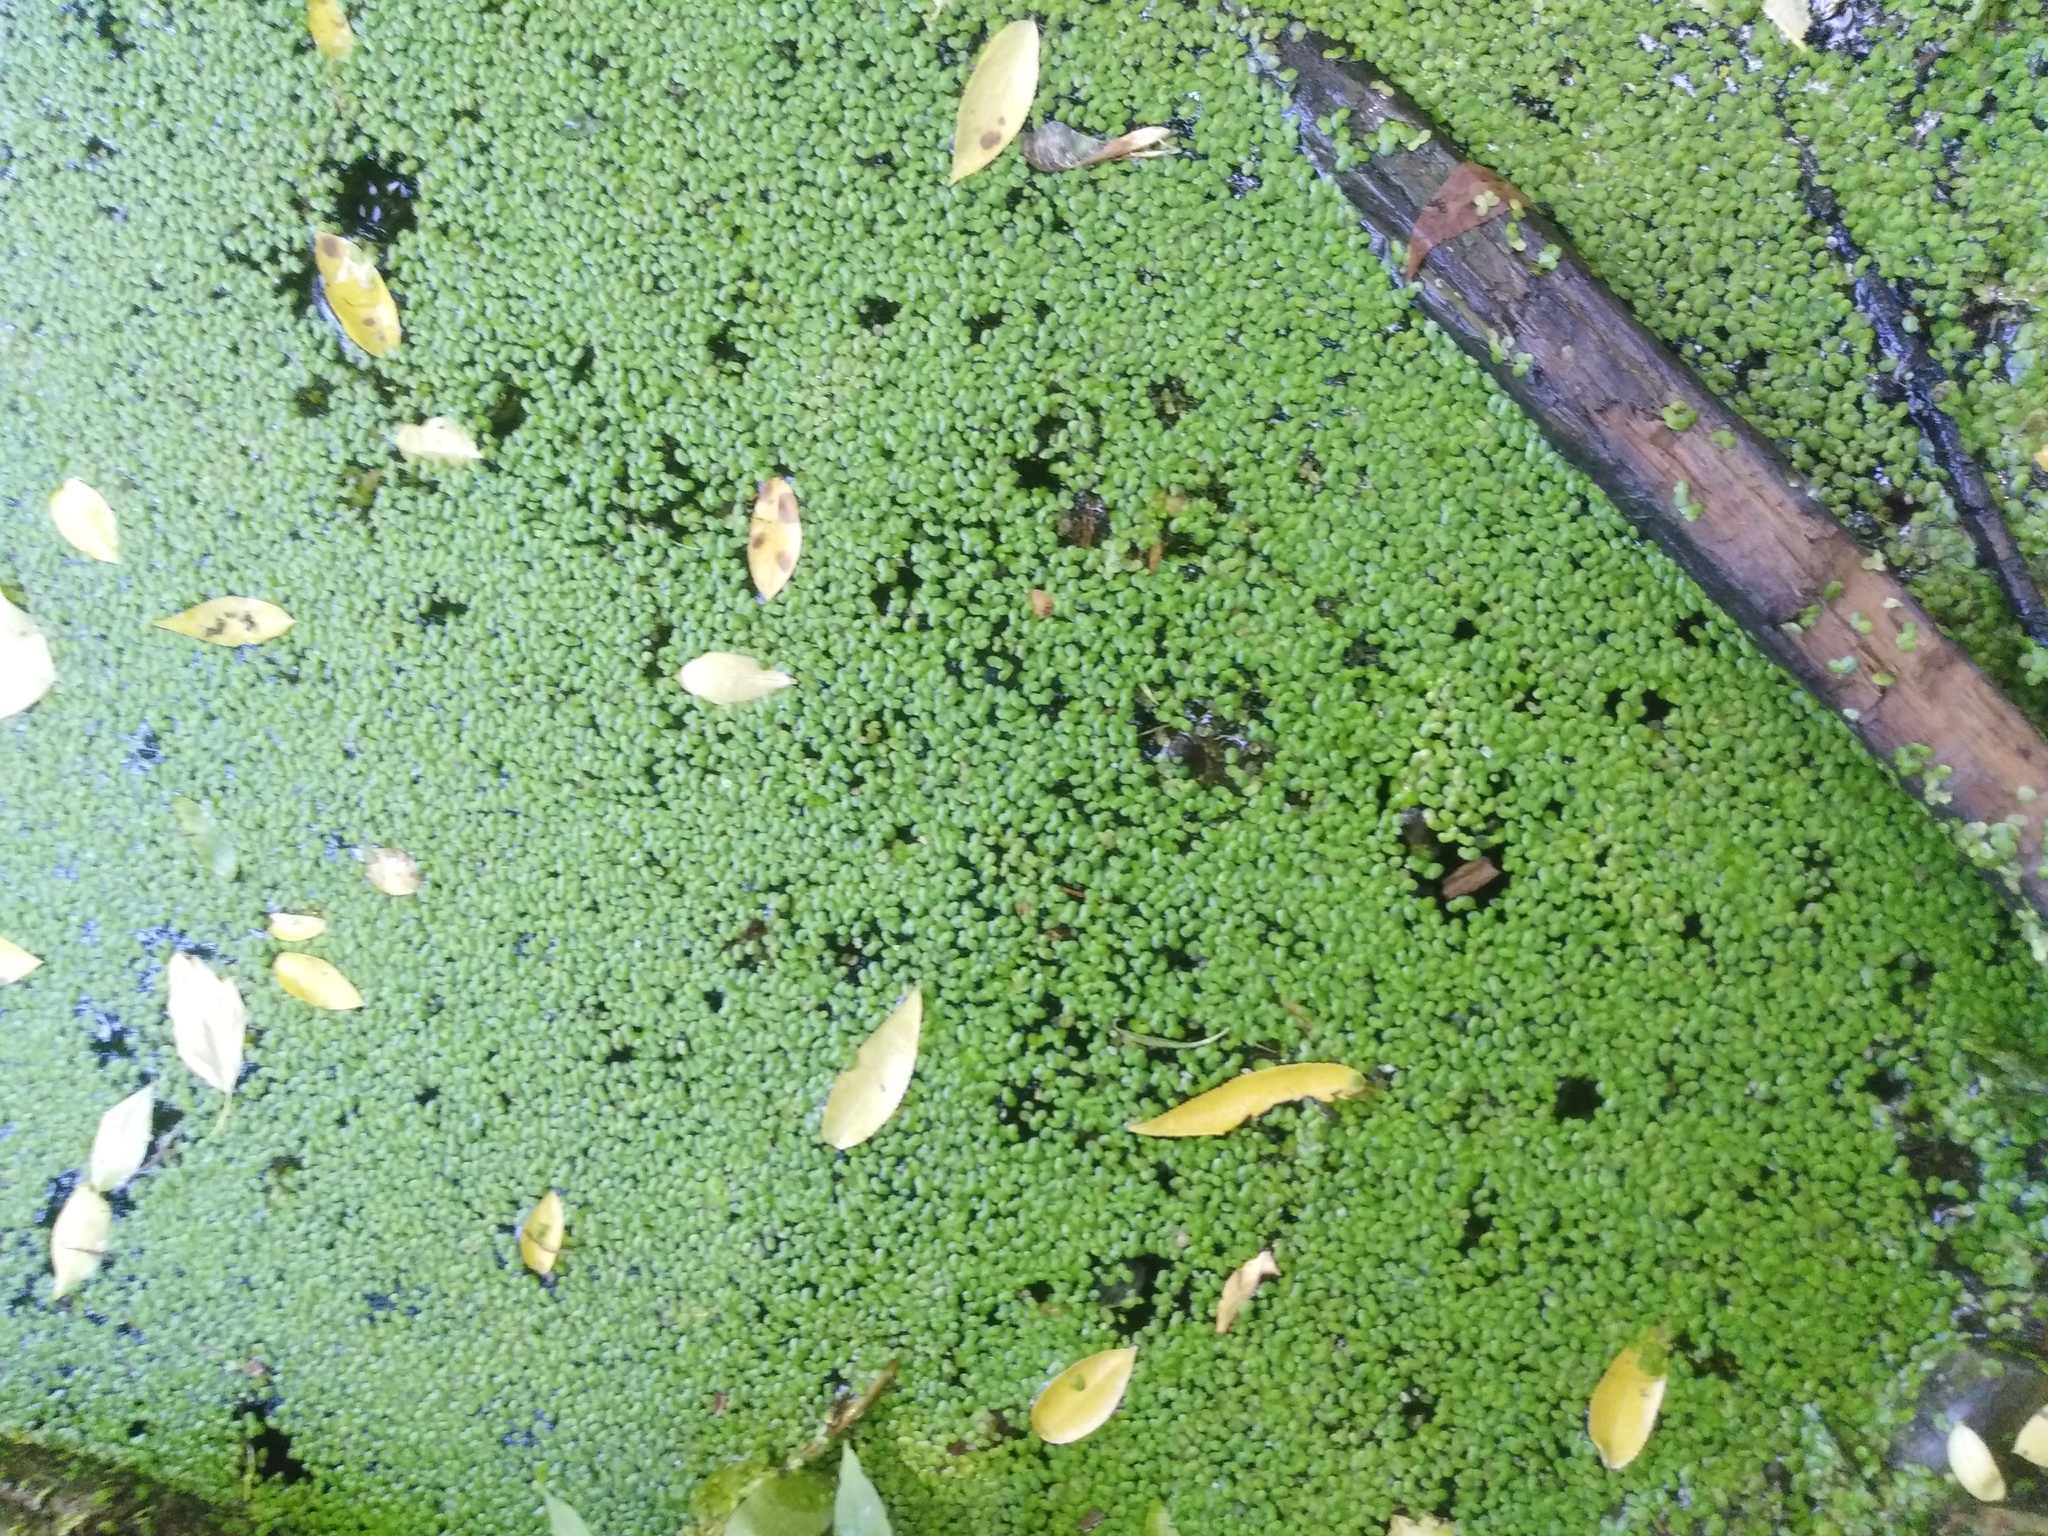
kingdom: Plantae
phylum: Tracheophyta
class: Liliopsida
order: Alismatales
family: Araceae
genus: Lemna
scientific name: Lemna minor
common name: Common duckweed
